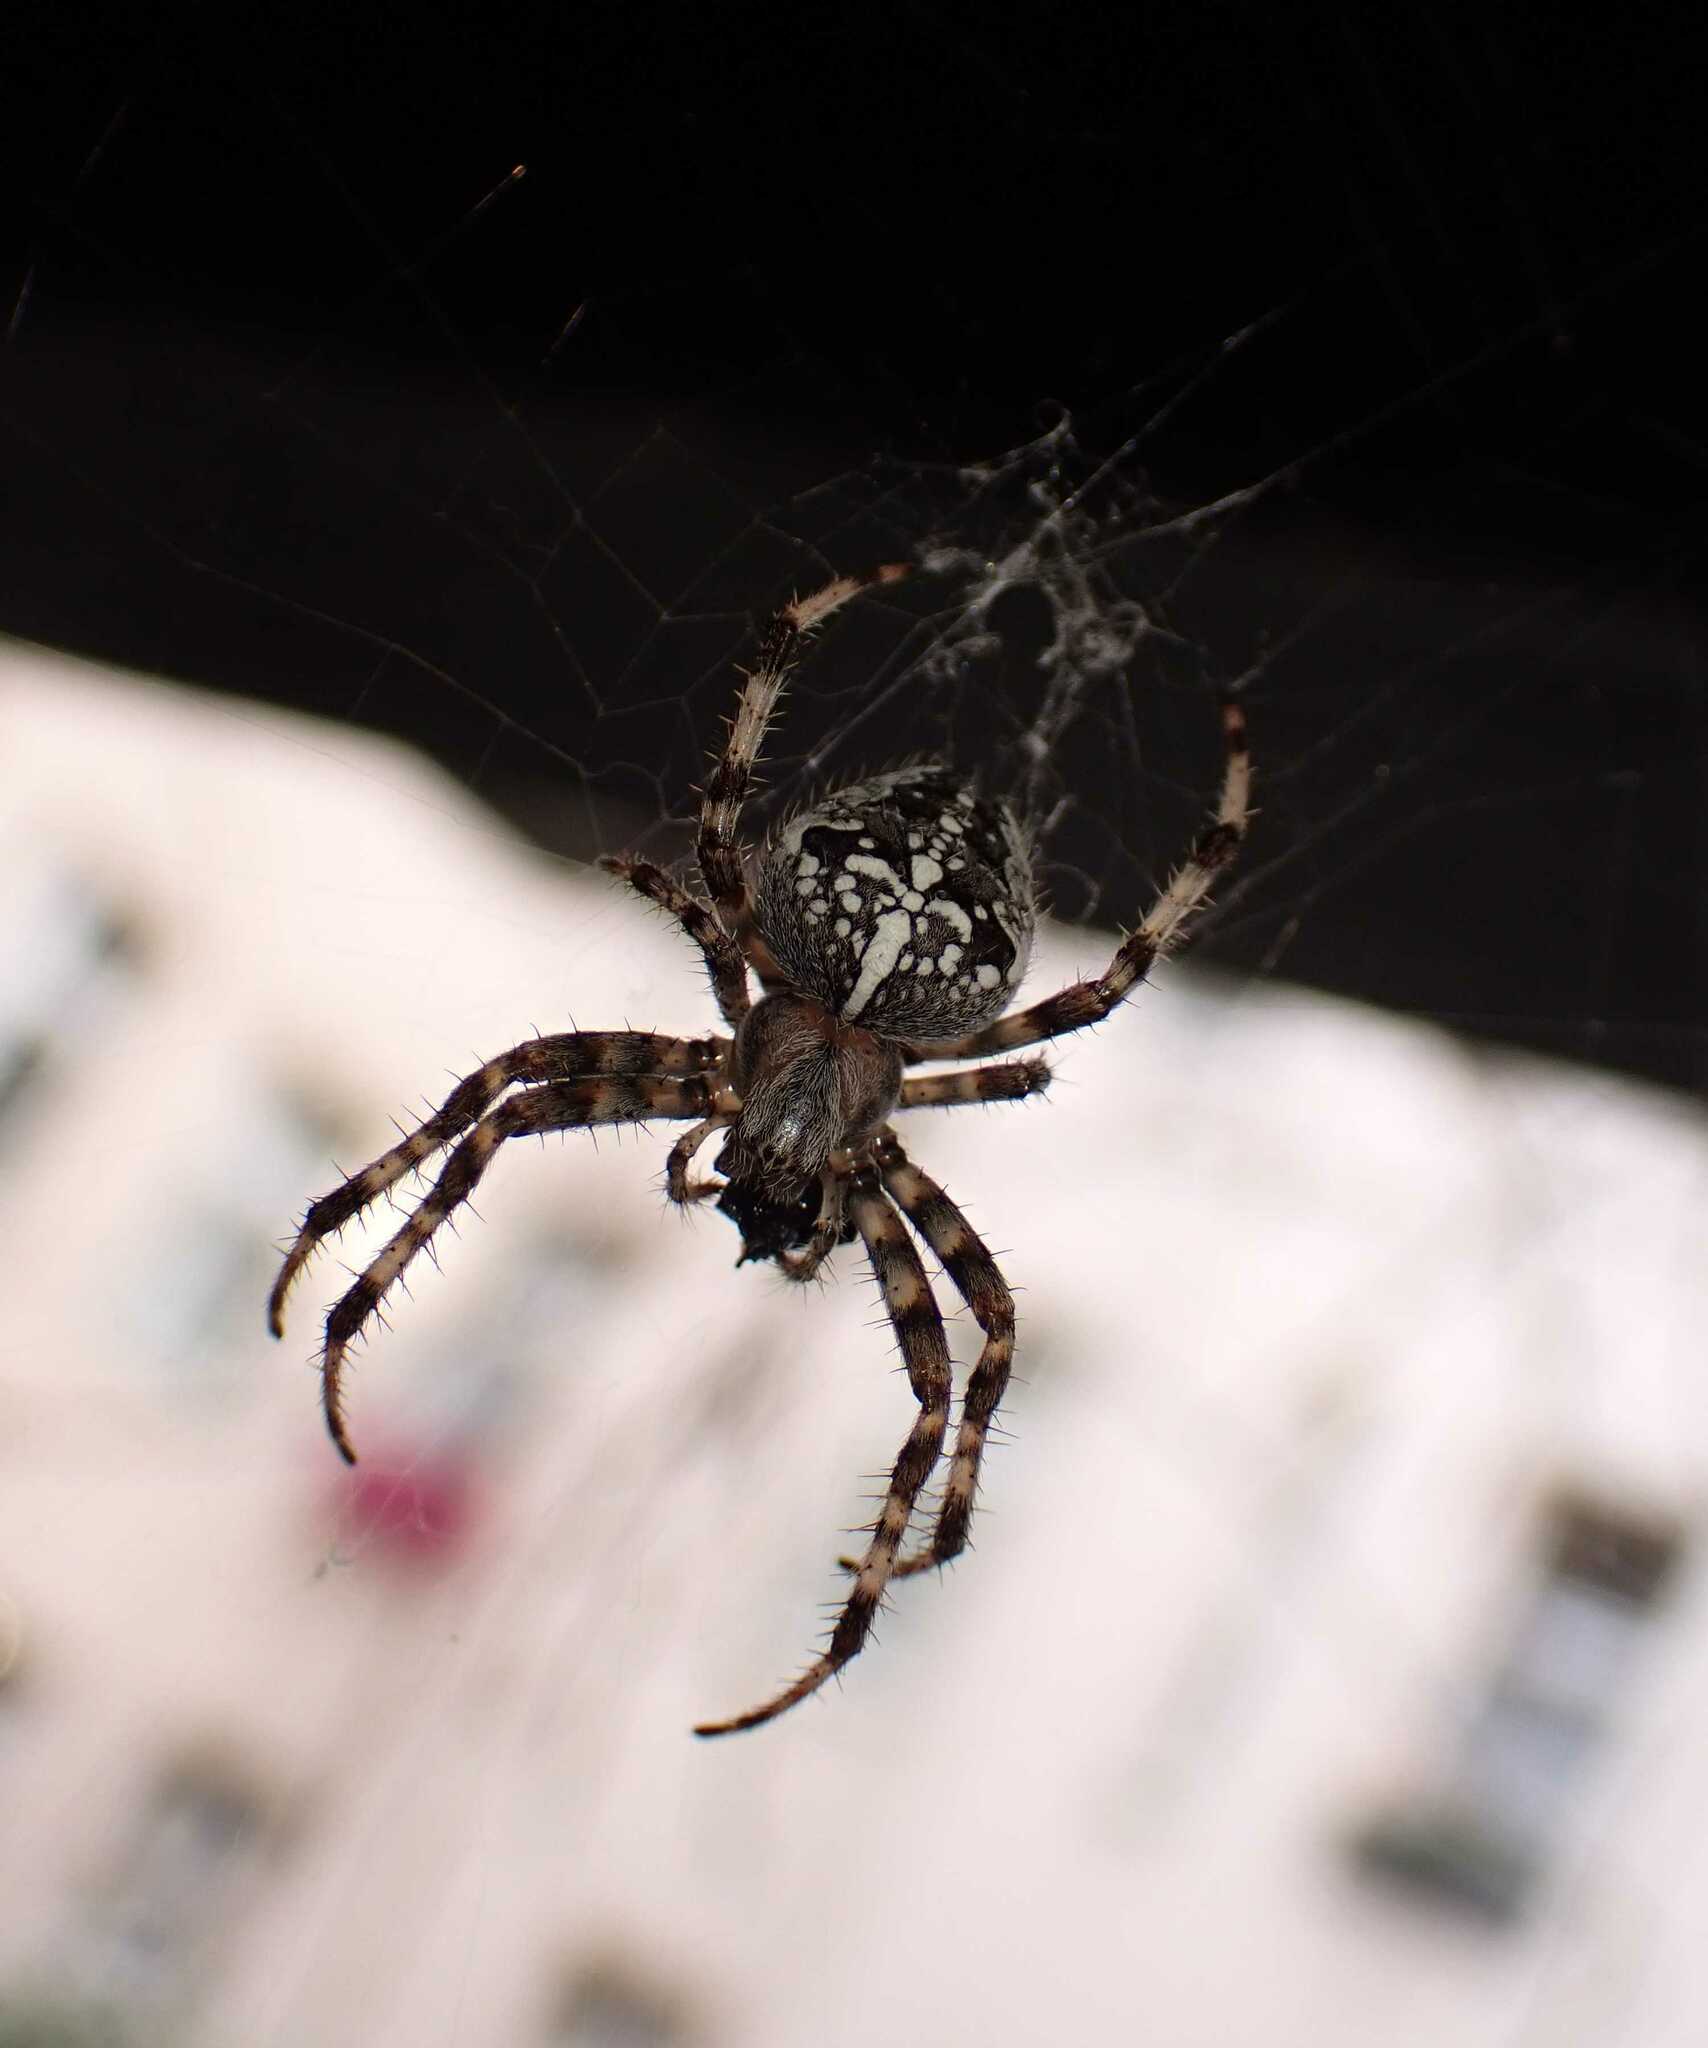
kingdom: Animalia
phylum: Arthropoda
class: Arachnida
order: Araneae
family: Araneidae
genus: Araneus
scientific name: Araneus diadematus
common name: Cross orbweaver
